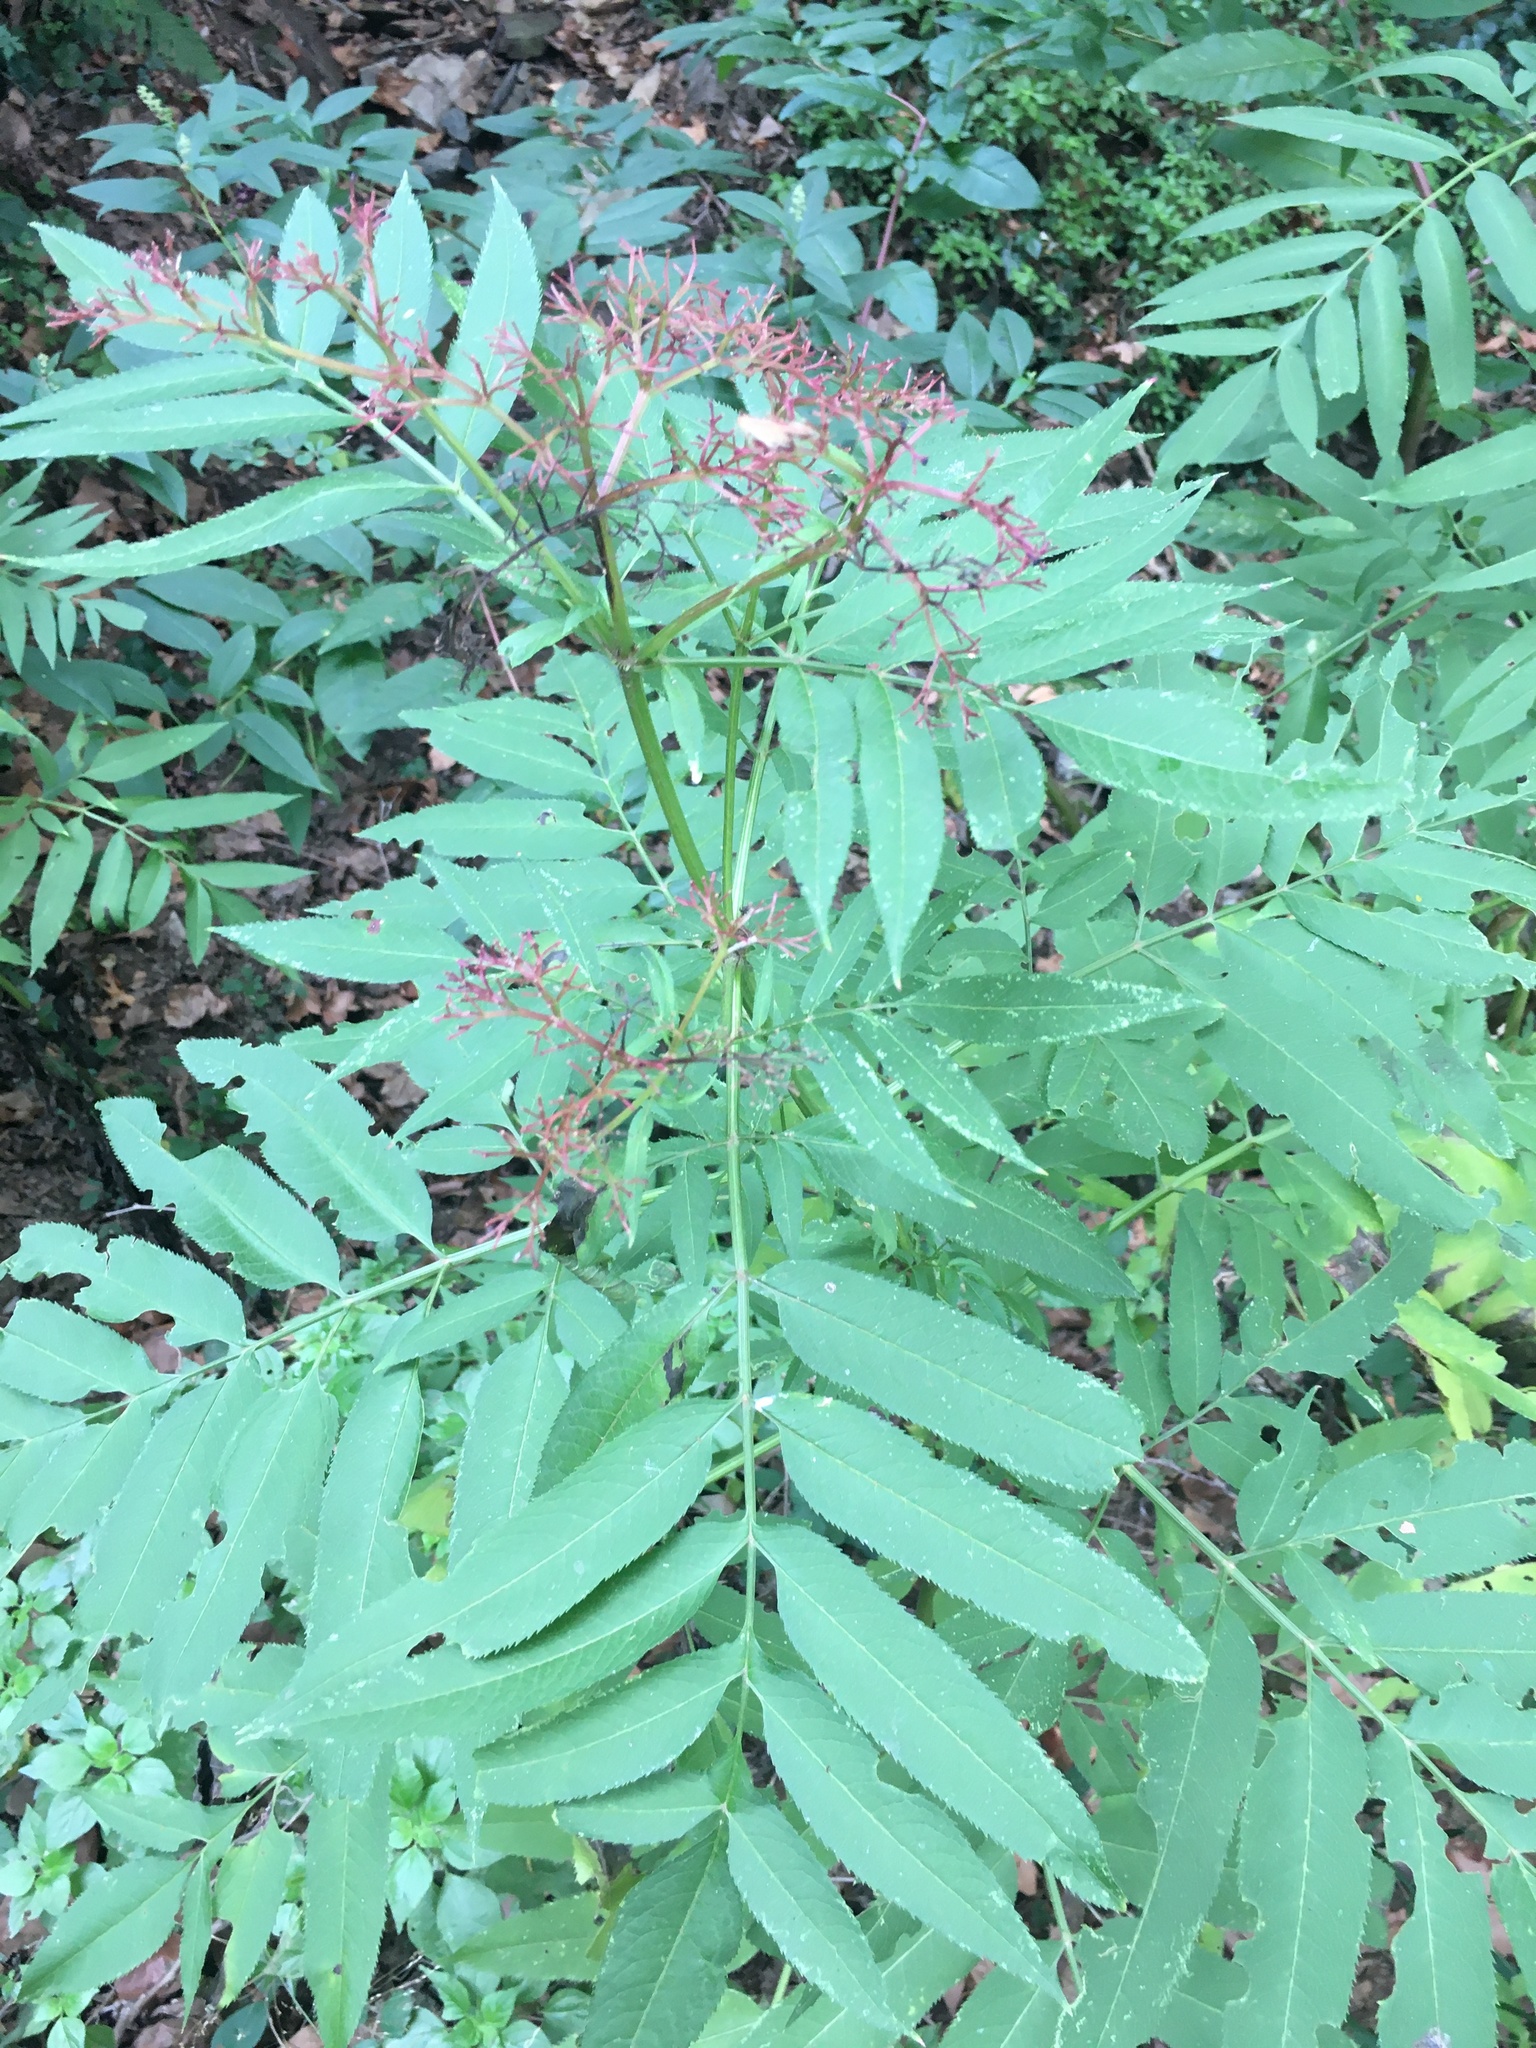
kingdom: Plantae
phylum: Tracheophyta
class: Magnoliopsida
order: Dipsacales
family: Viburnaceae
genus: Sambucus
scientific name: Sambucus ebulus
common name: Dwarf elder
